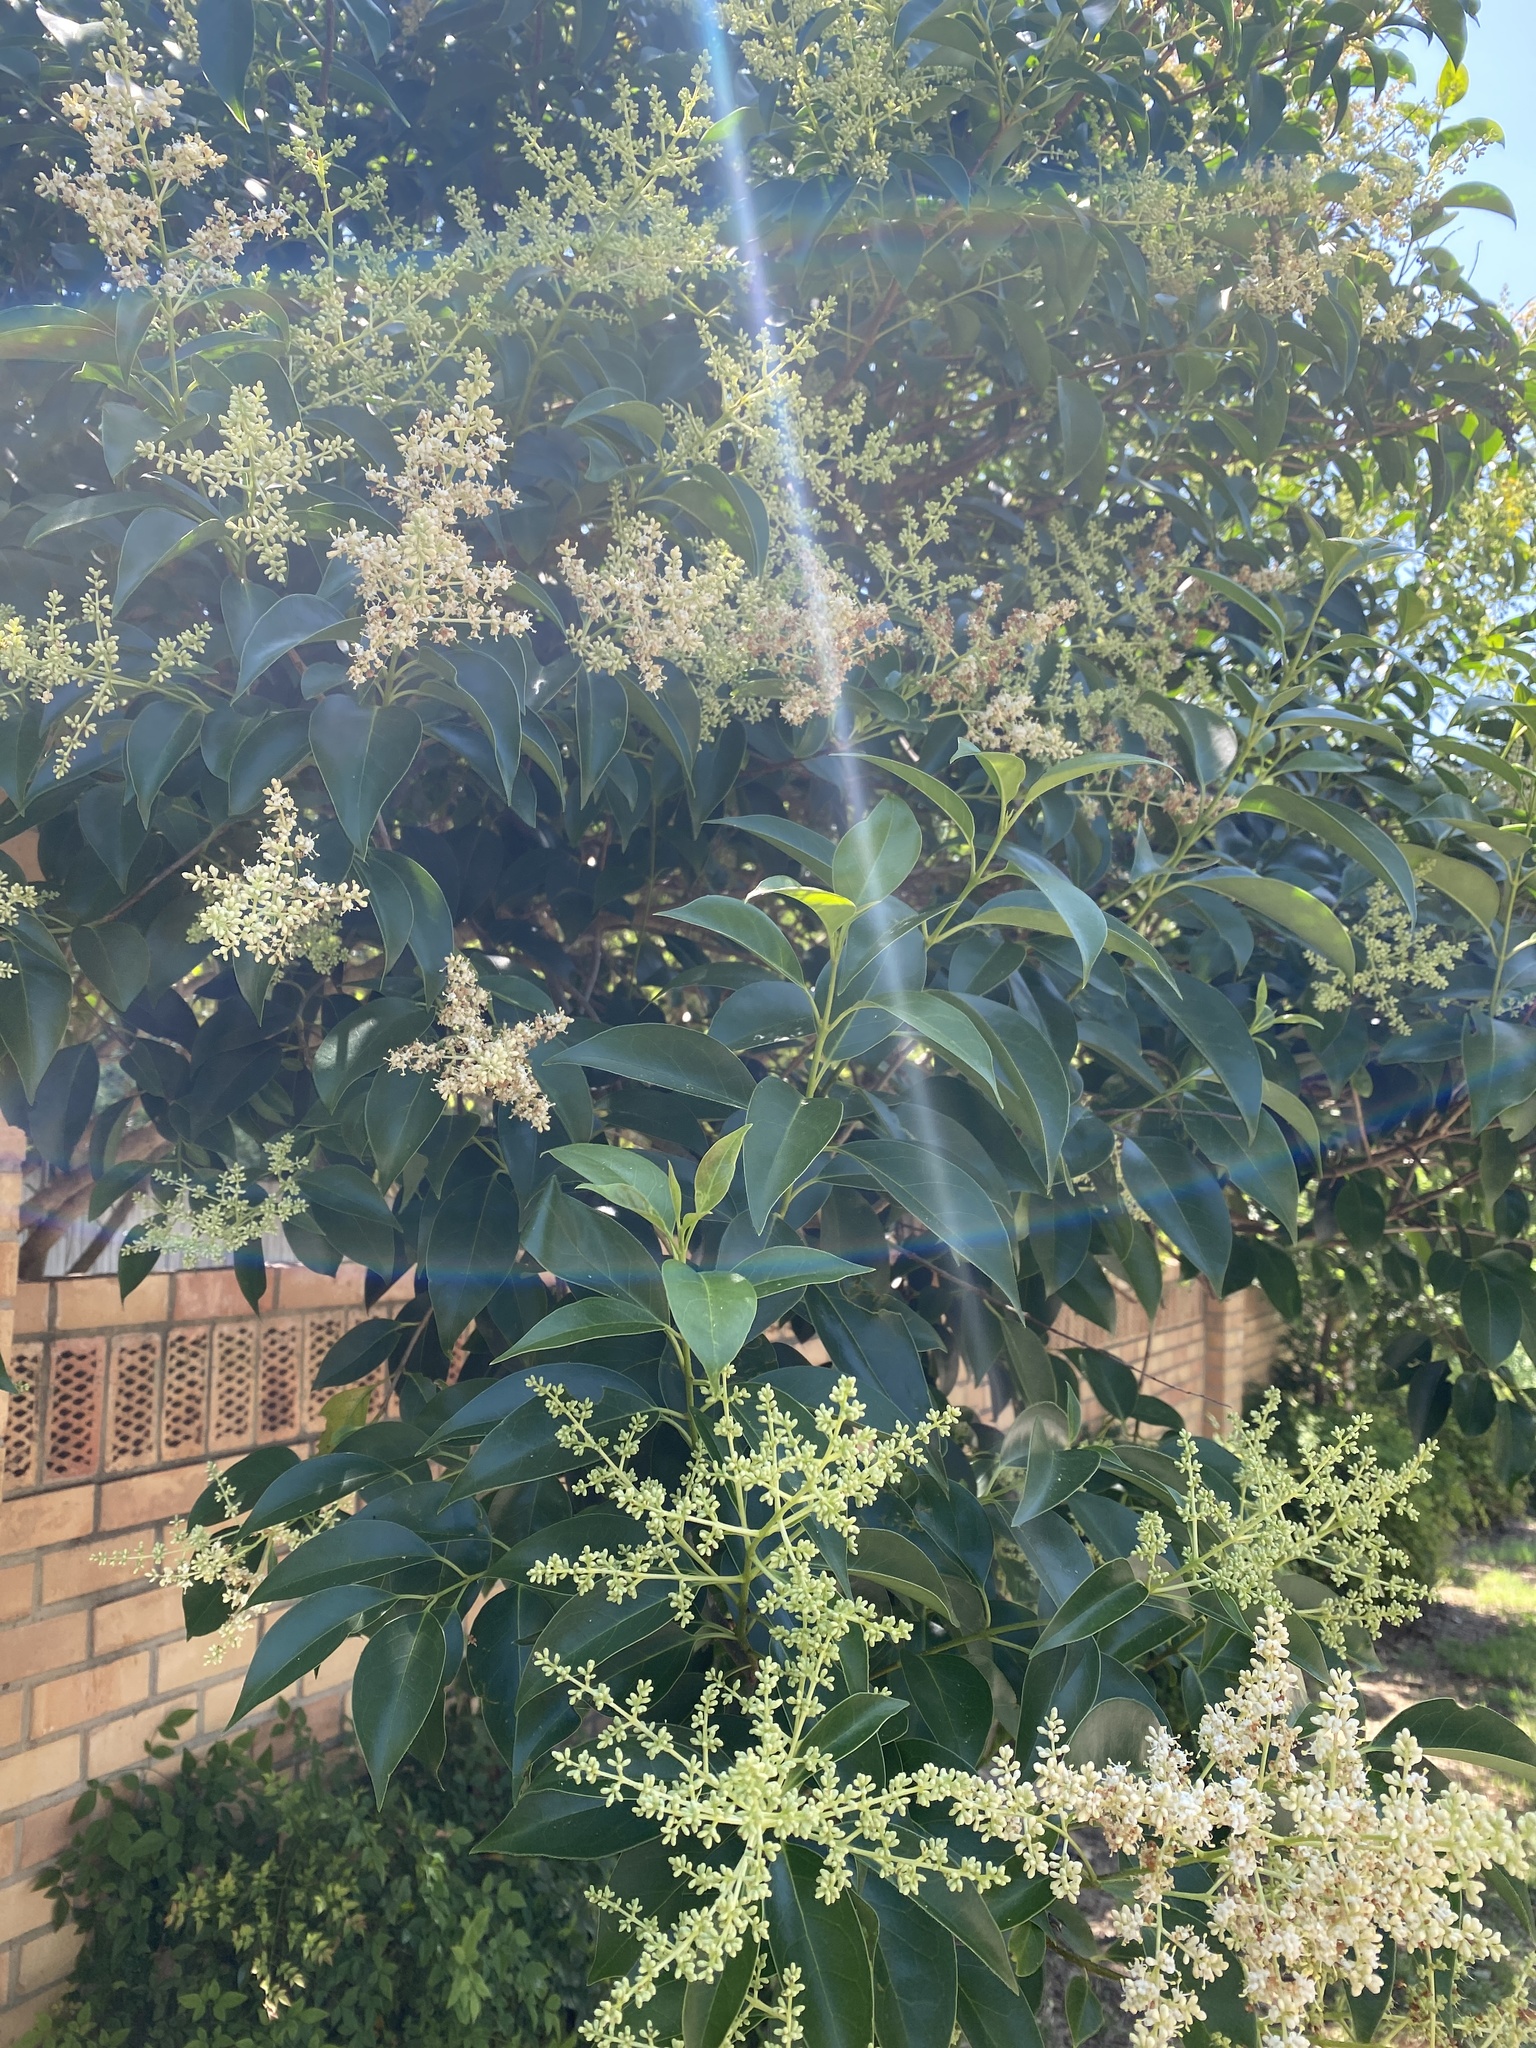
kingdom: Plantae
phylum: Tracheophyta
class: Magnoliopsida
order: Lamiales
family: Oleaceae
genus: Ligustrum
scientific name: Ligustrum lucidum
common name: Glossy privet
